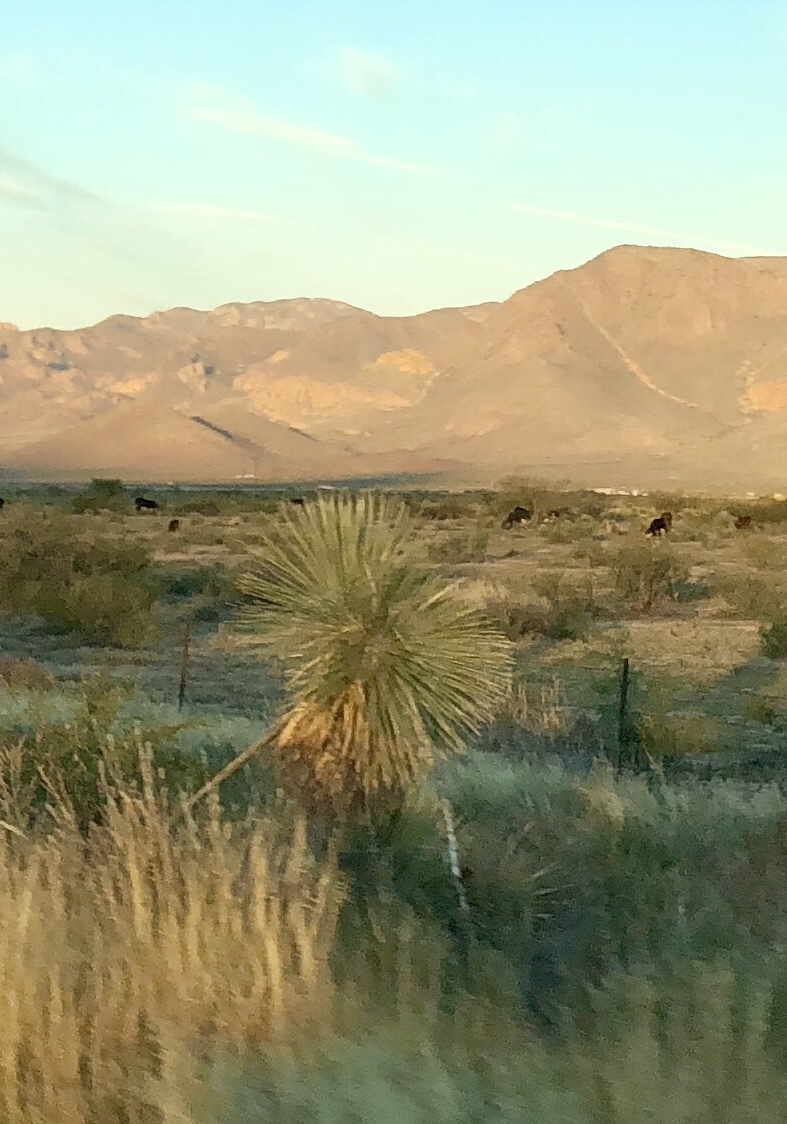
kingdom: Plantae
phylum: Tracheophyta
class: Liliopsida
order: Asparagales
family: Asparagaceae
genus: Yucca
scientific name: Yucca elata
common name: Palmella
